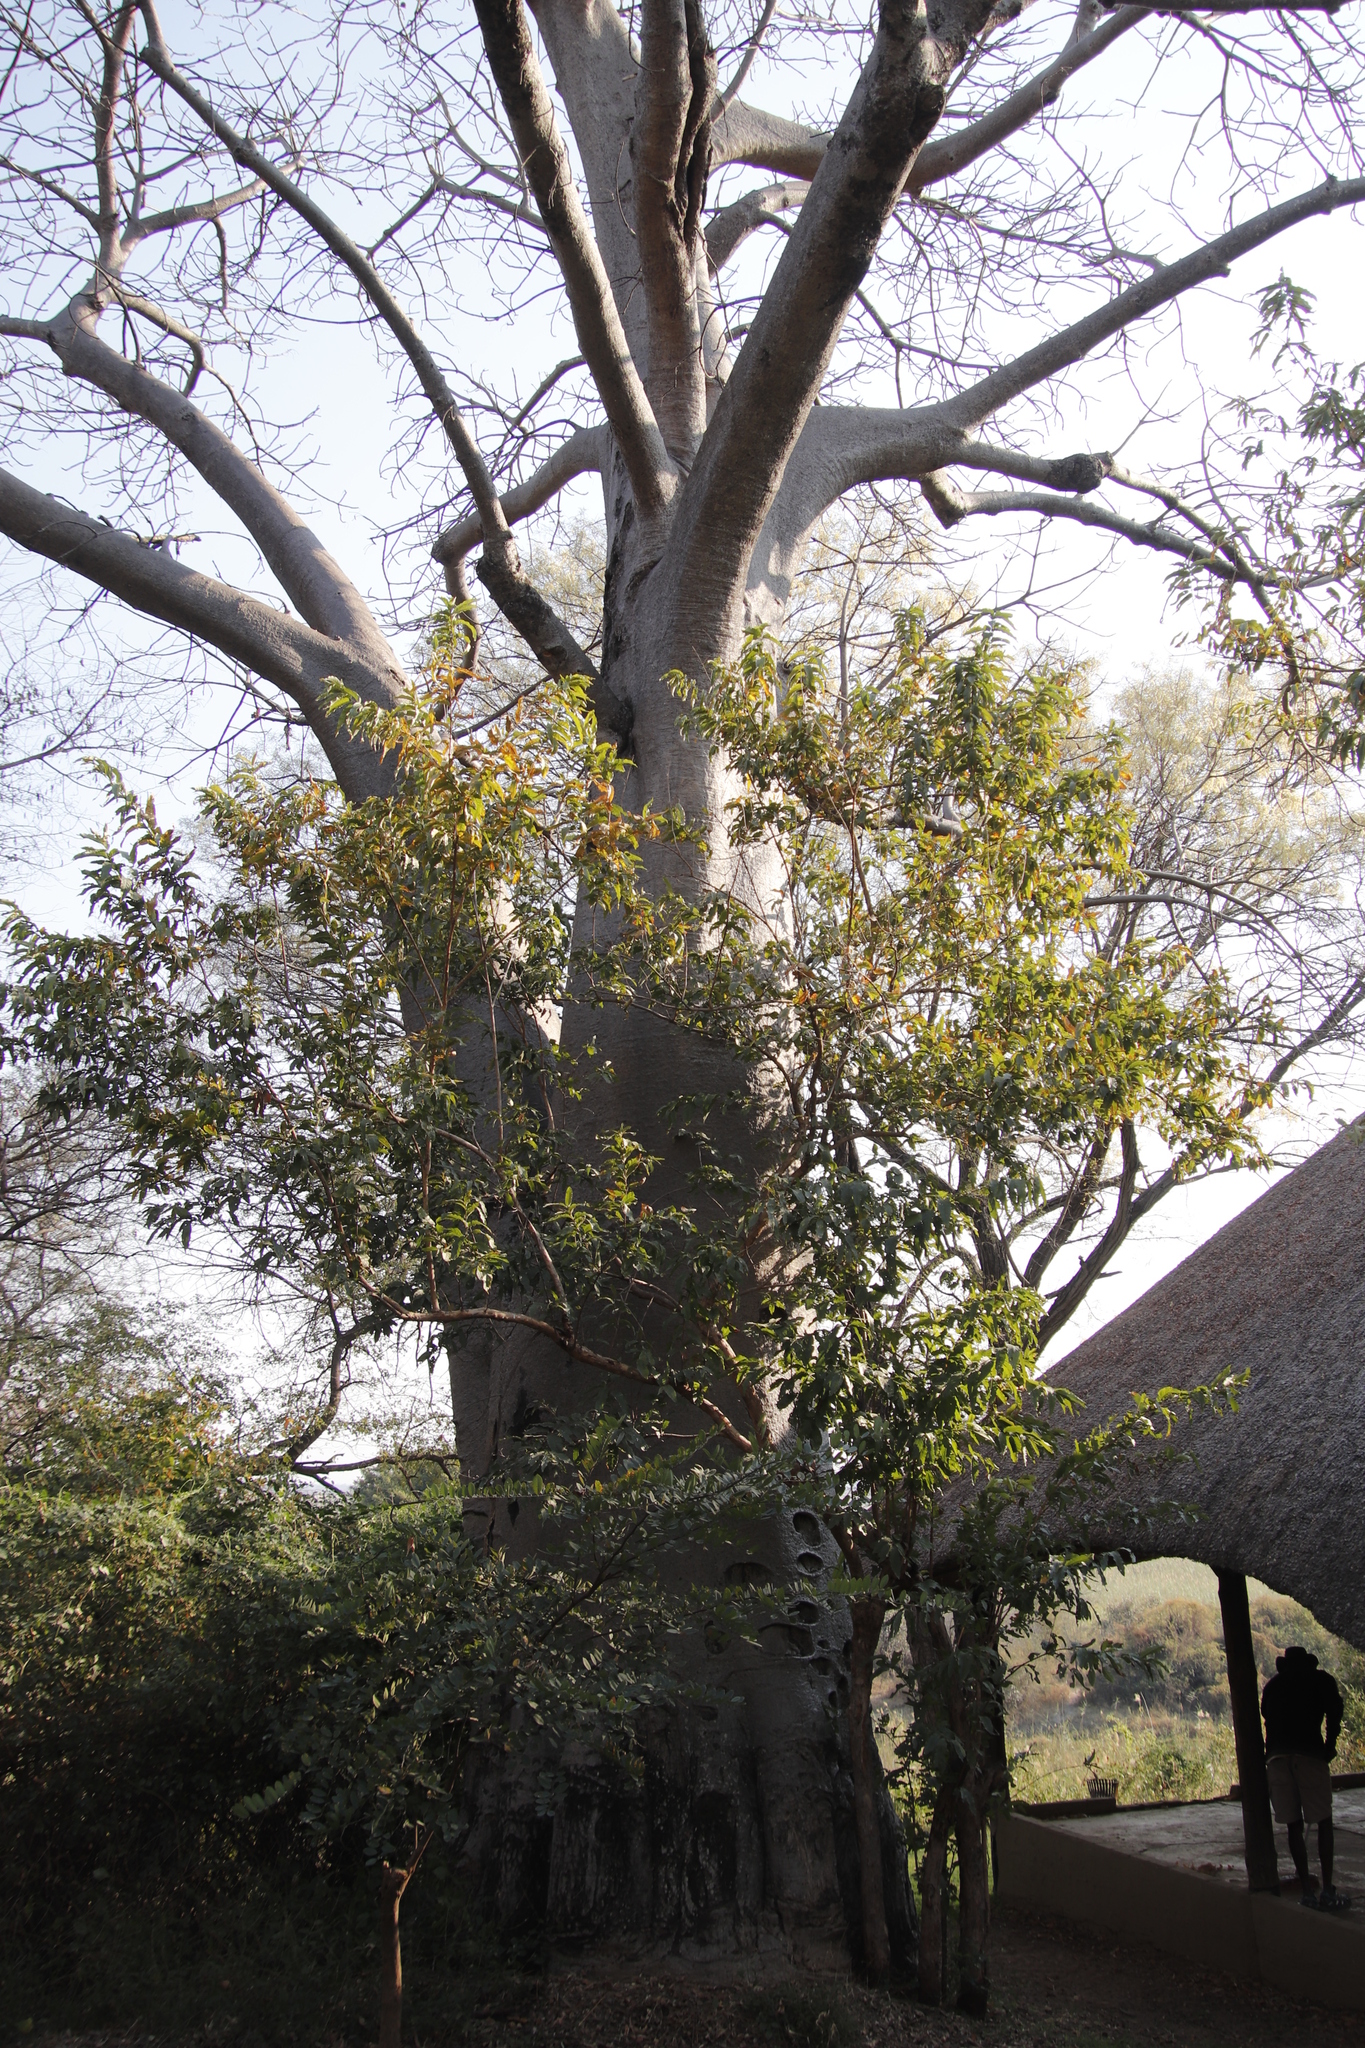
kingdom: Plantae
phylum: Tracheophyta
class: Magnoliopsida
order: Malvales
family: Malvaceae
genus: Adansonia
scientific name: Adansonia digitata
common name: Dead-rat-tree
